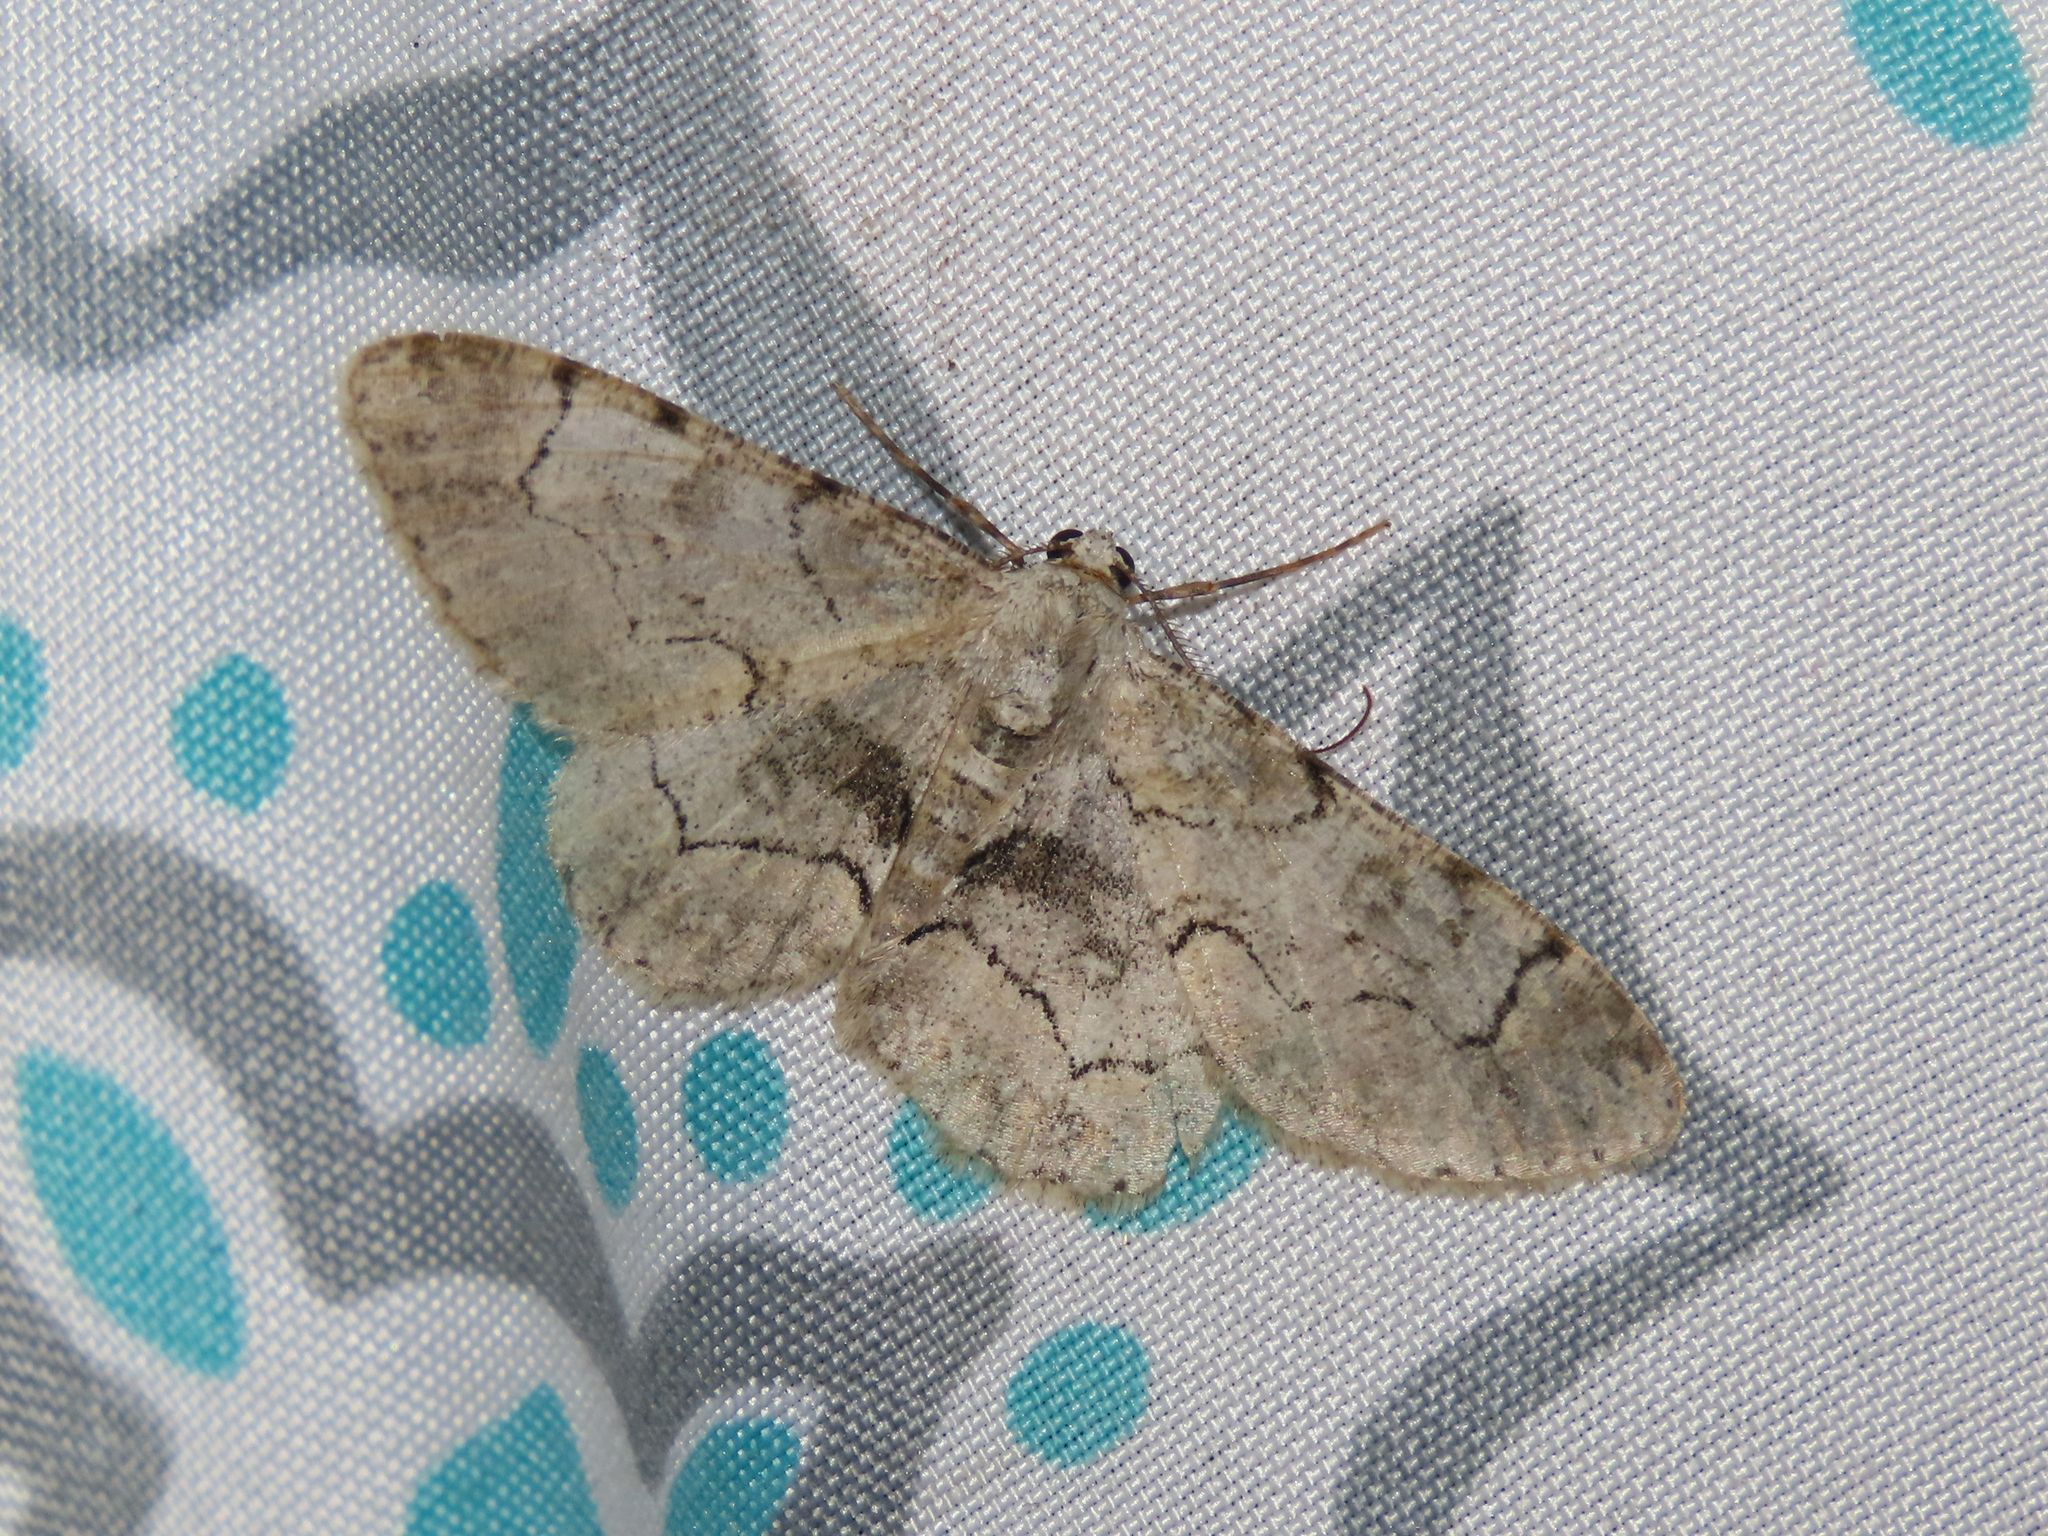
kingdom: Animalia
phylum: Arthropoda
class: Insecta
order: Lepidoptera
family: Geometridae
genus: Iridopsis
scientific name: Iridopsis larvaria
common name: Bent-line gray
